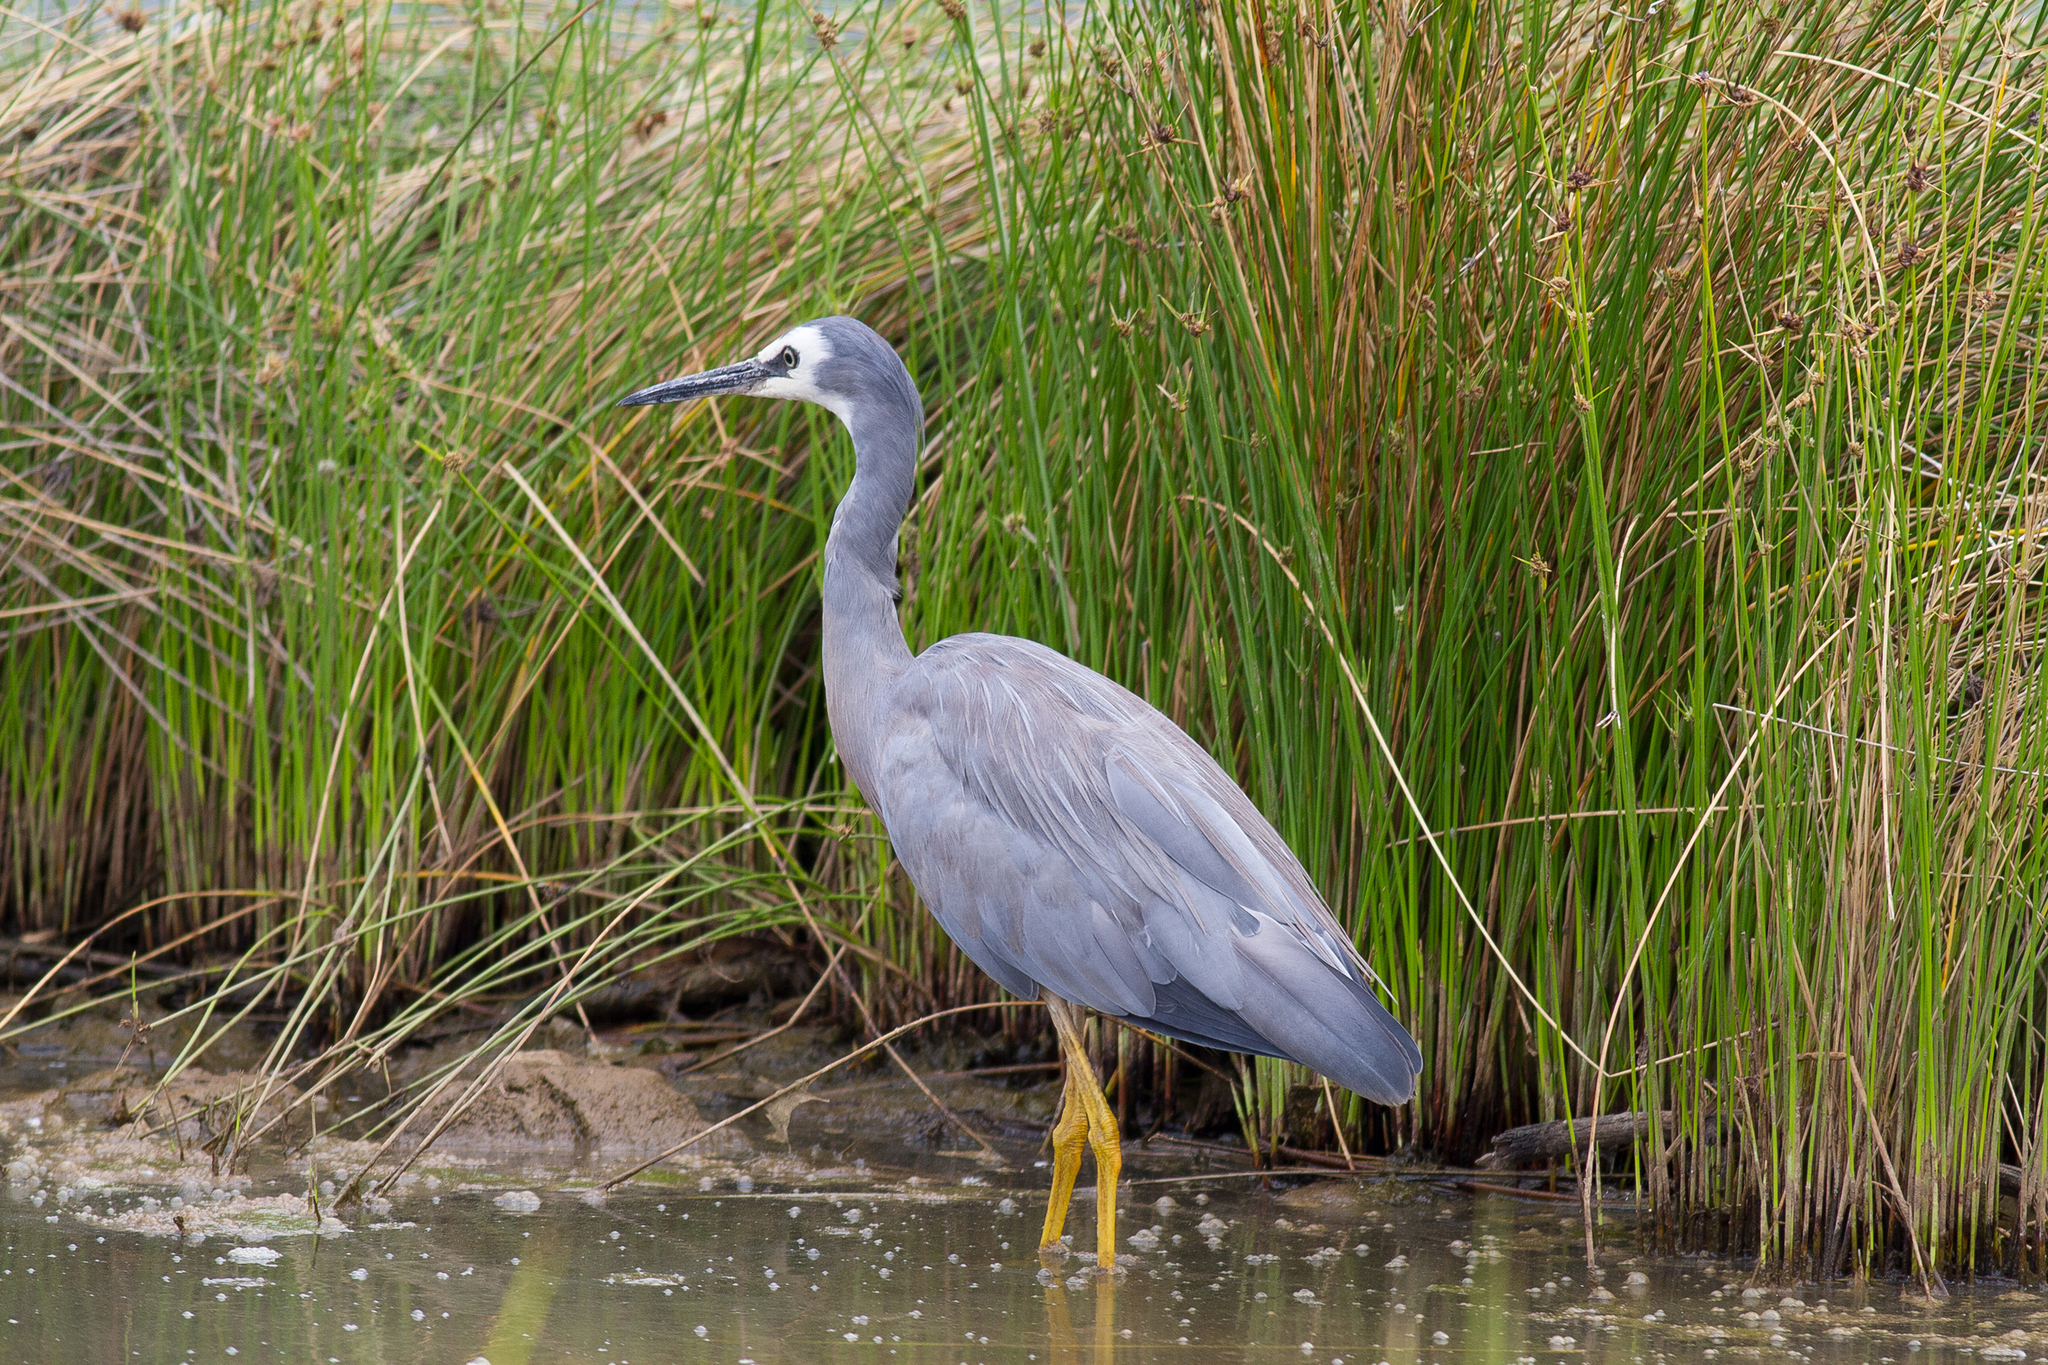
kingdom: Animalia
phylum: Chordata
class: Aves
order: Pelecaniformes
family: Ardeidae
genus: Egretta
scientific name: Egretta novaehollandiae
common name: White-faced heron
